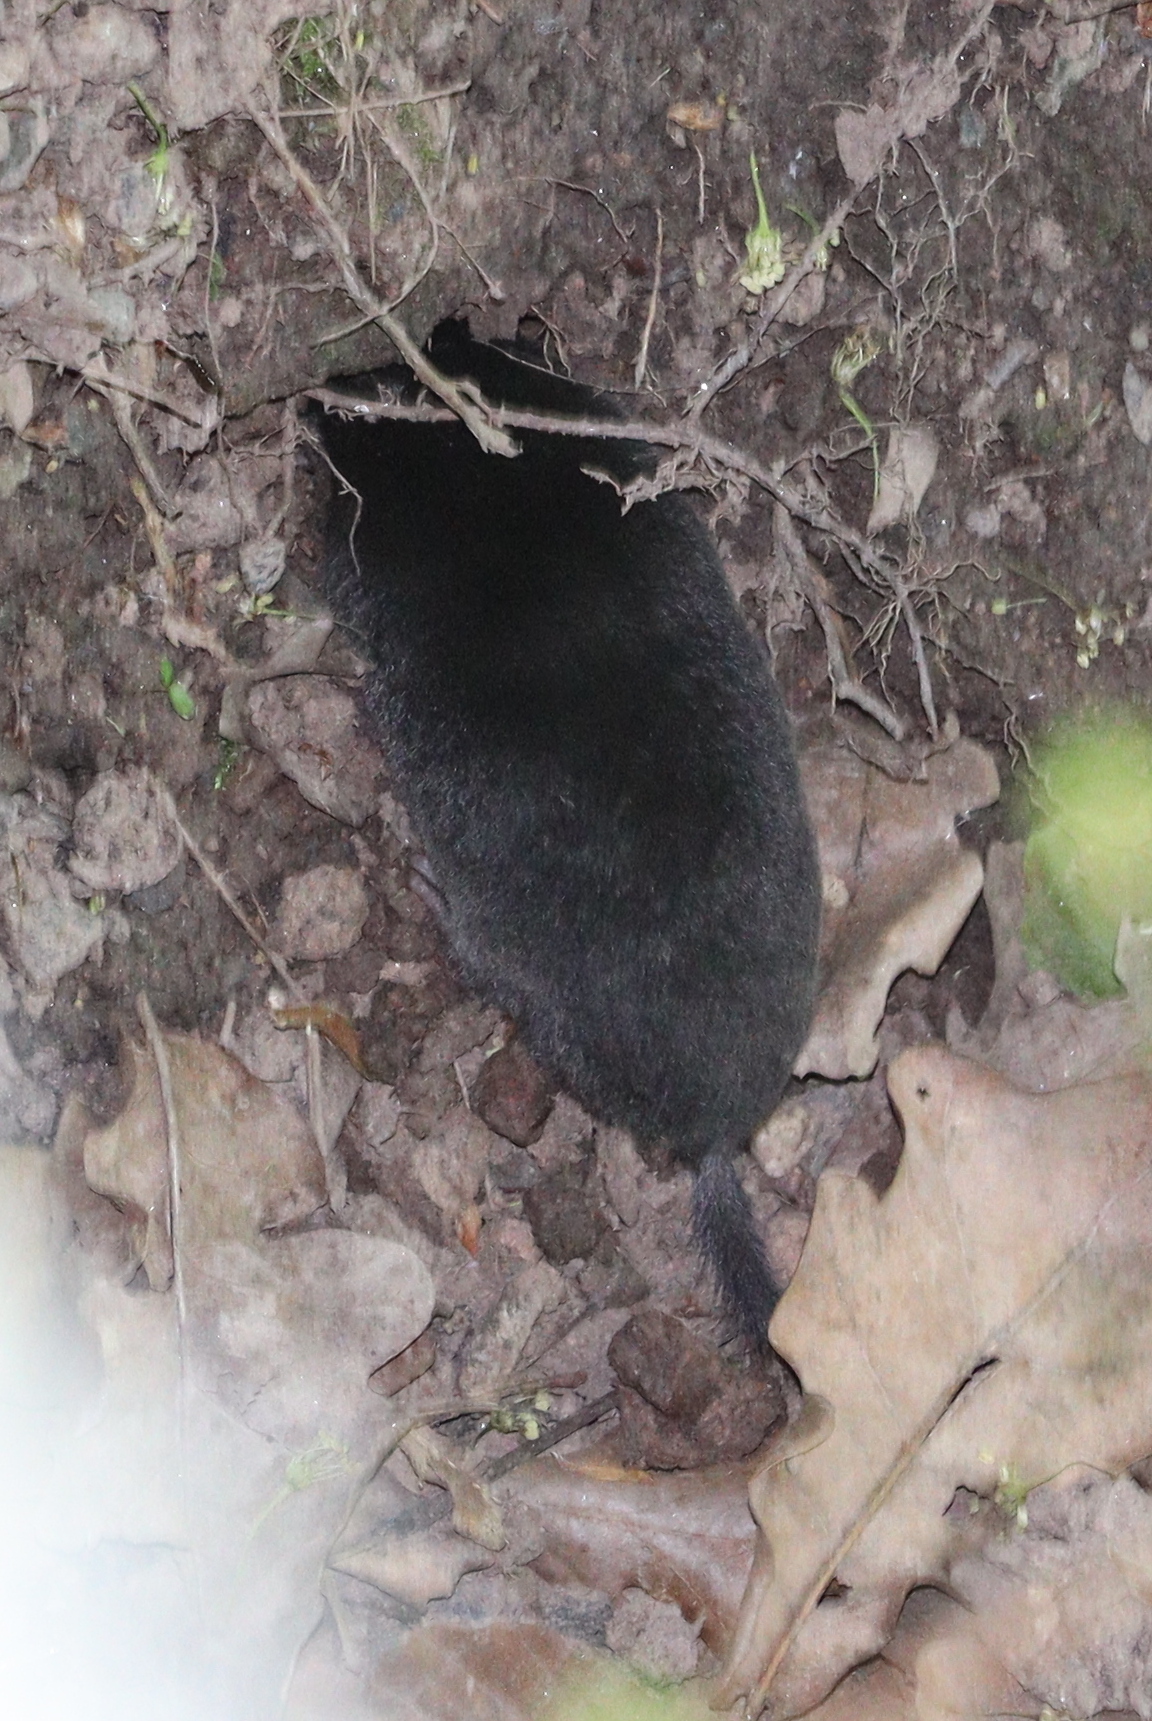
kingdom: Animalia
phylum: Chordata
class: Mammalia
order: Soricomorpha
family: Talpidae
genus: Talpa
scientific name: Talpa europaea
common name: European mole
